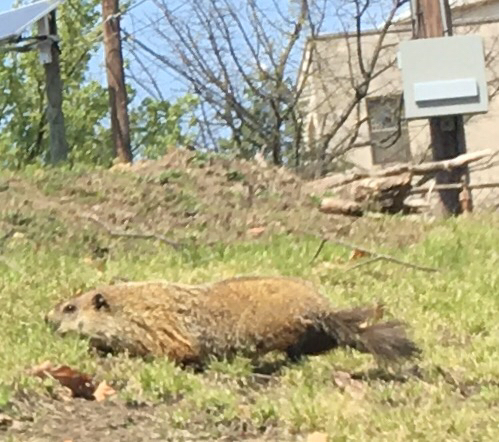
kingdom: Animalia
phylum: Chordata
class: Mammalia
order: Rodentia
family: Sciuridae
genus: Marmota
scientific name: Marmota monax
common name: Groundhog
